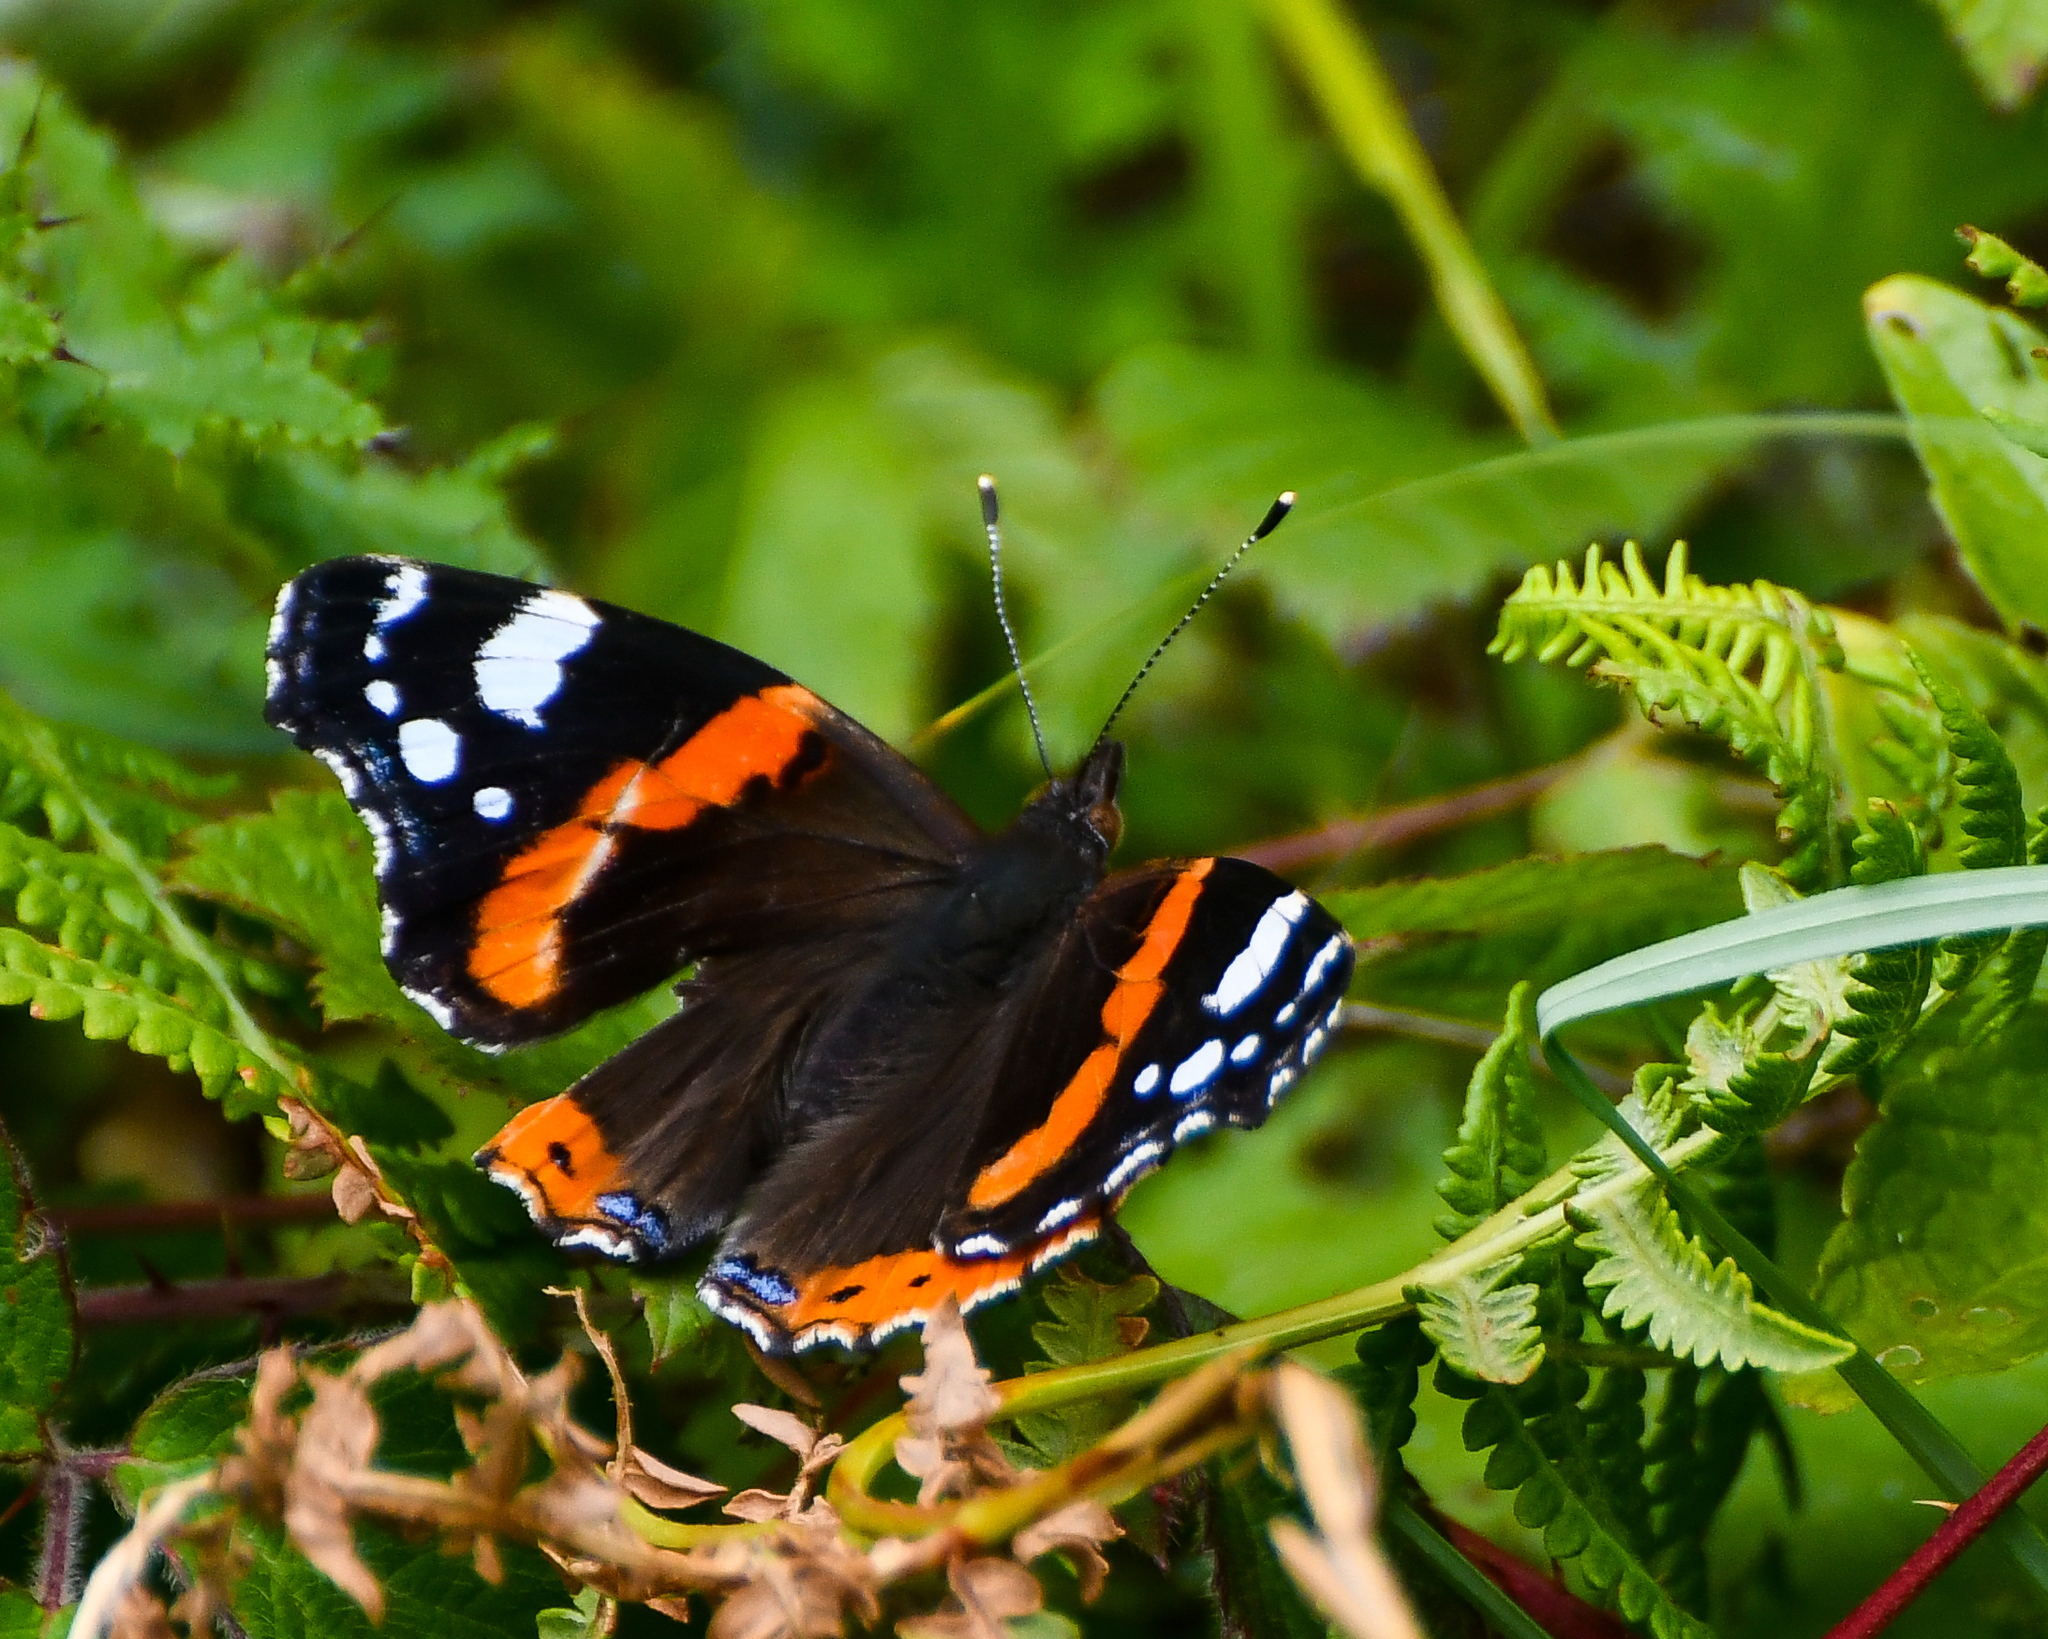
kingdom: Animalia
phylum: Arthropoda
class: Insecta
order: Lepidoptera
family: Nymphalidae
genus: Vanessa
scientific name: Vanessa atalanta
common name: Red admiral
